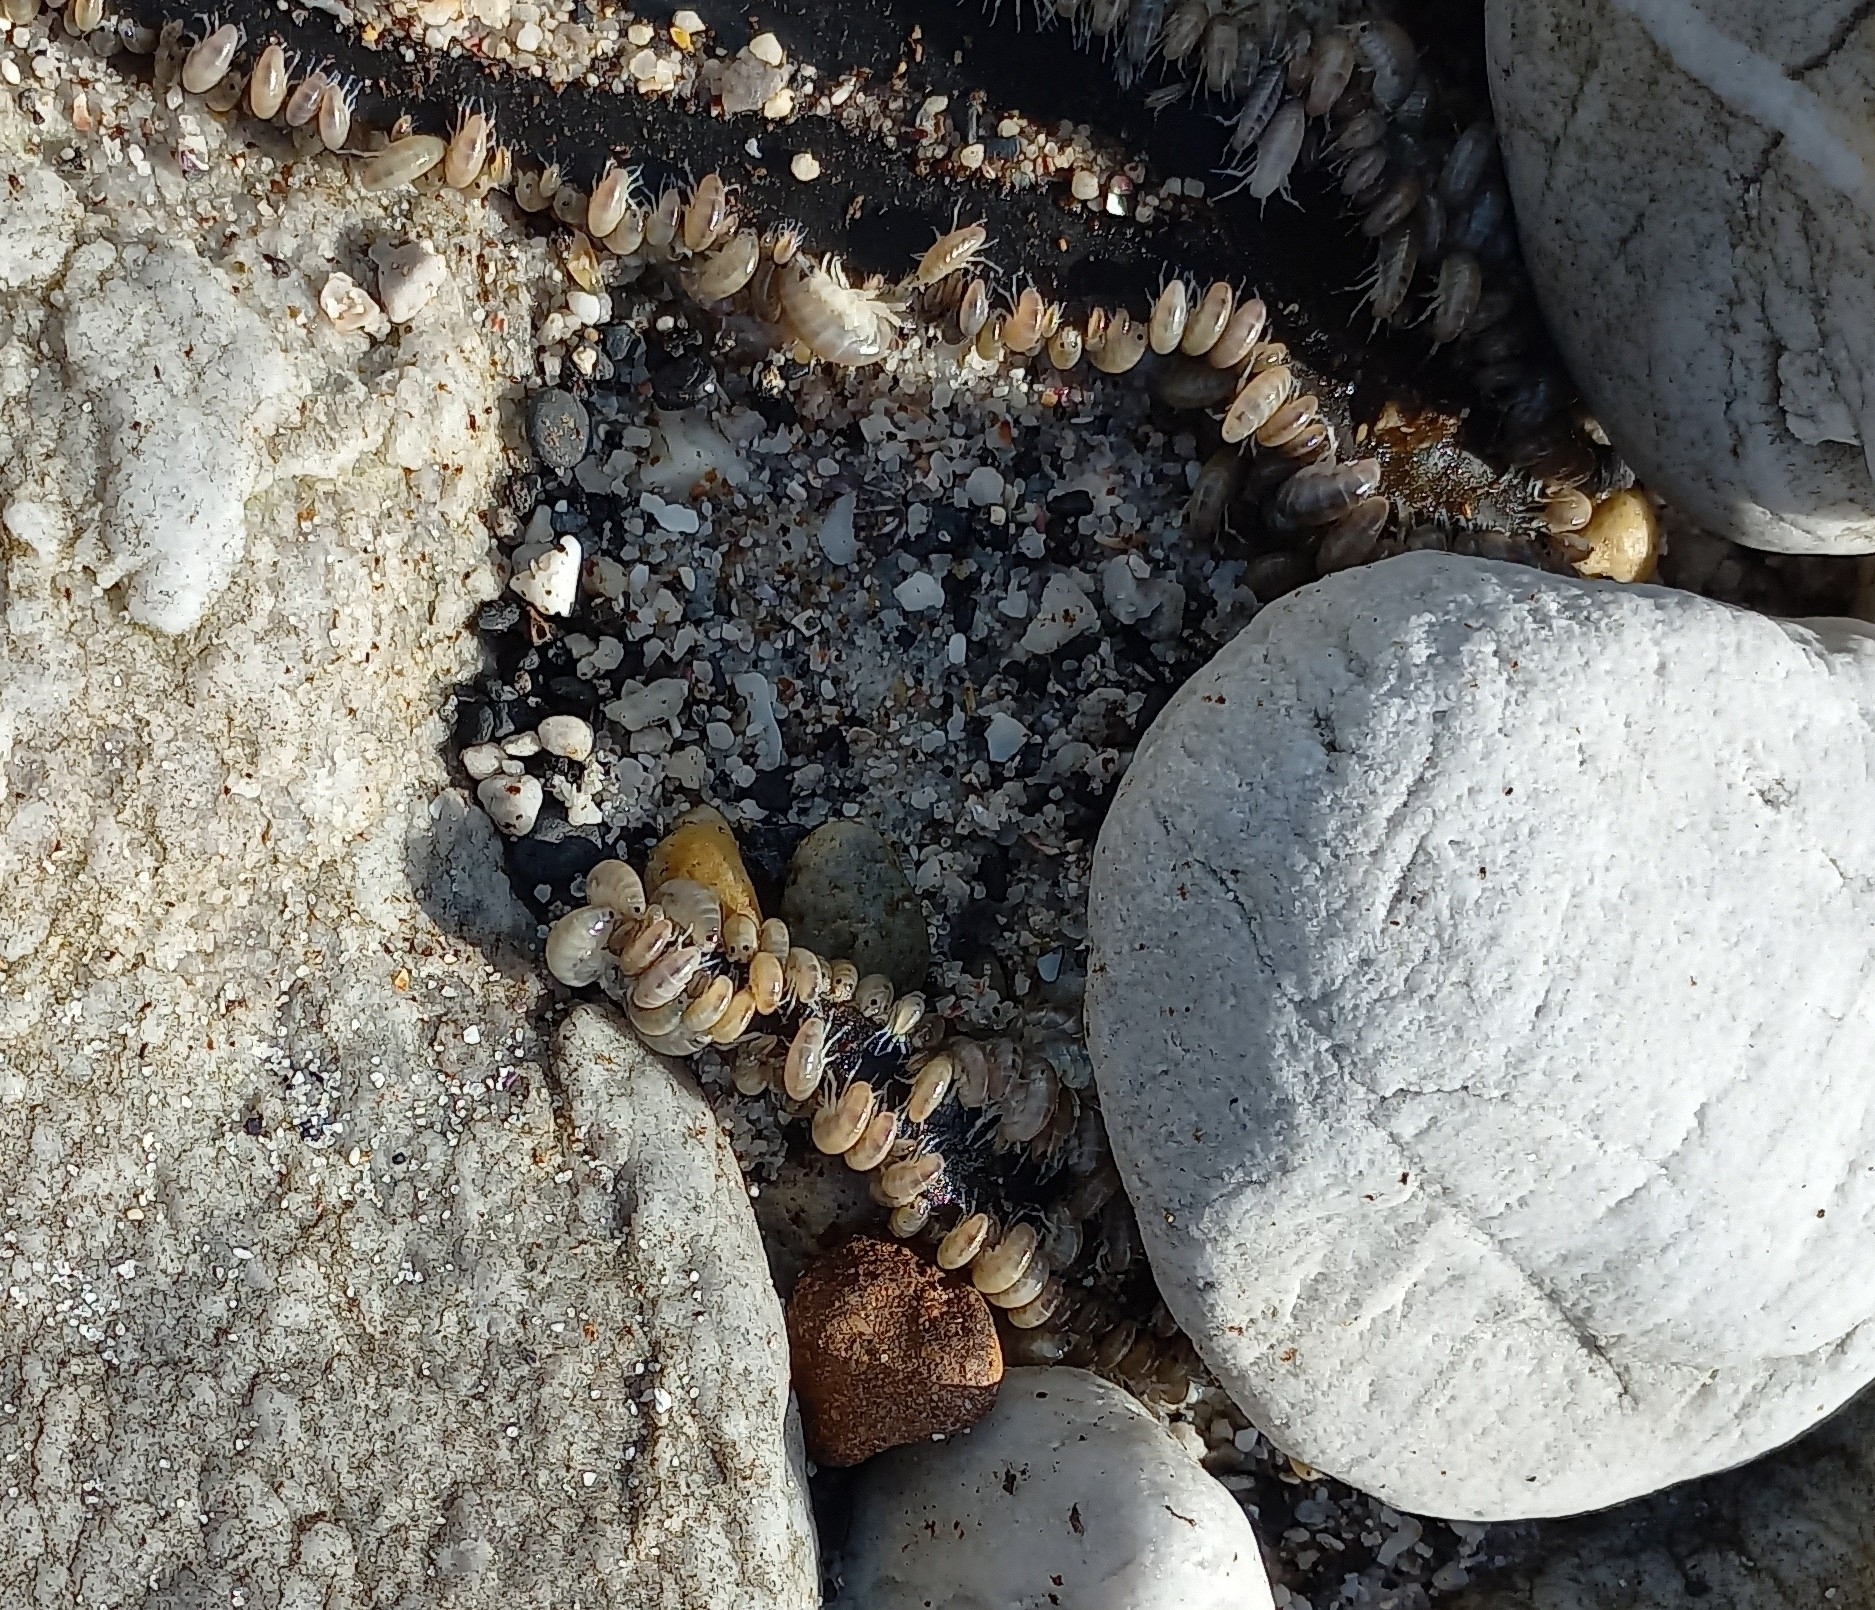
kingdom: Animalia
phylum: Arthropoda
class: Malacostraca
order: Amphipoda
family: Talitridae
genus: Capeorchestia
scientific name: Capeorchestia capensis
